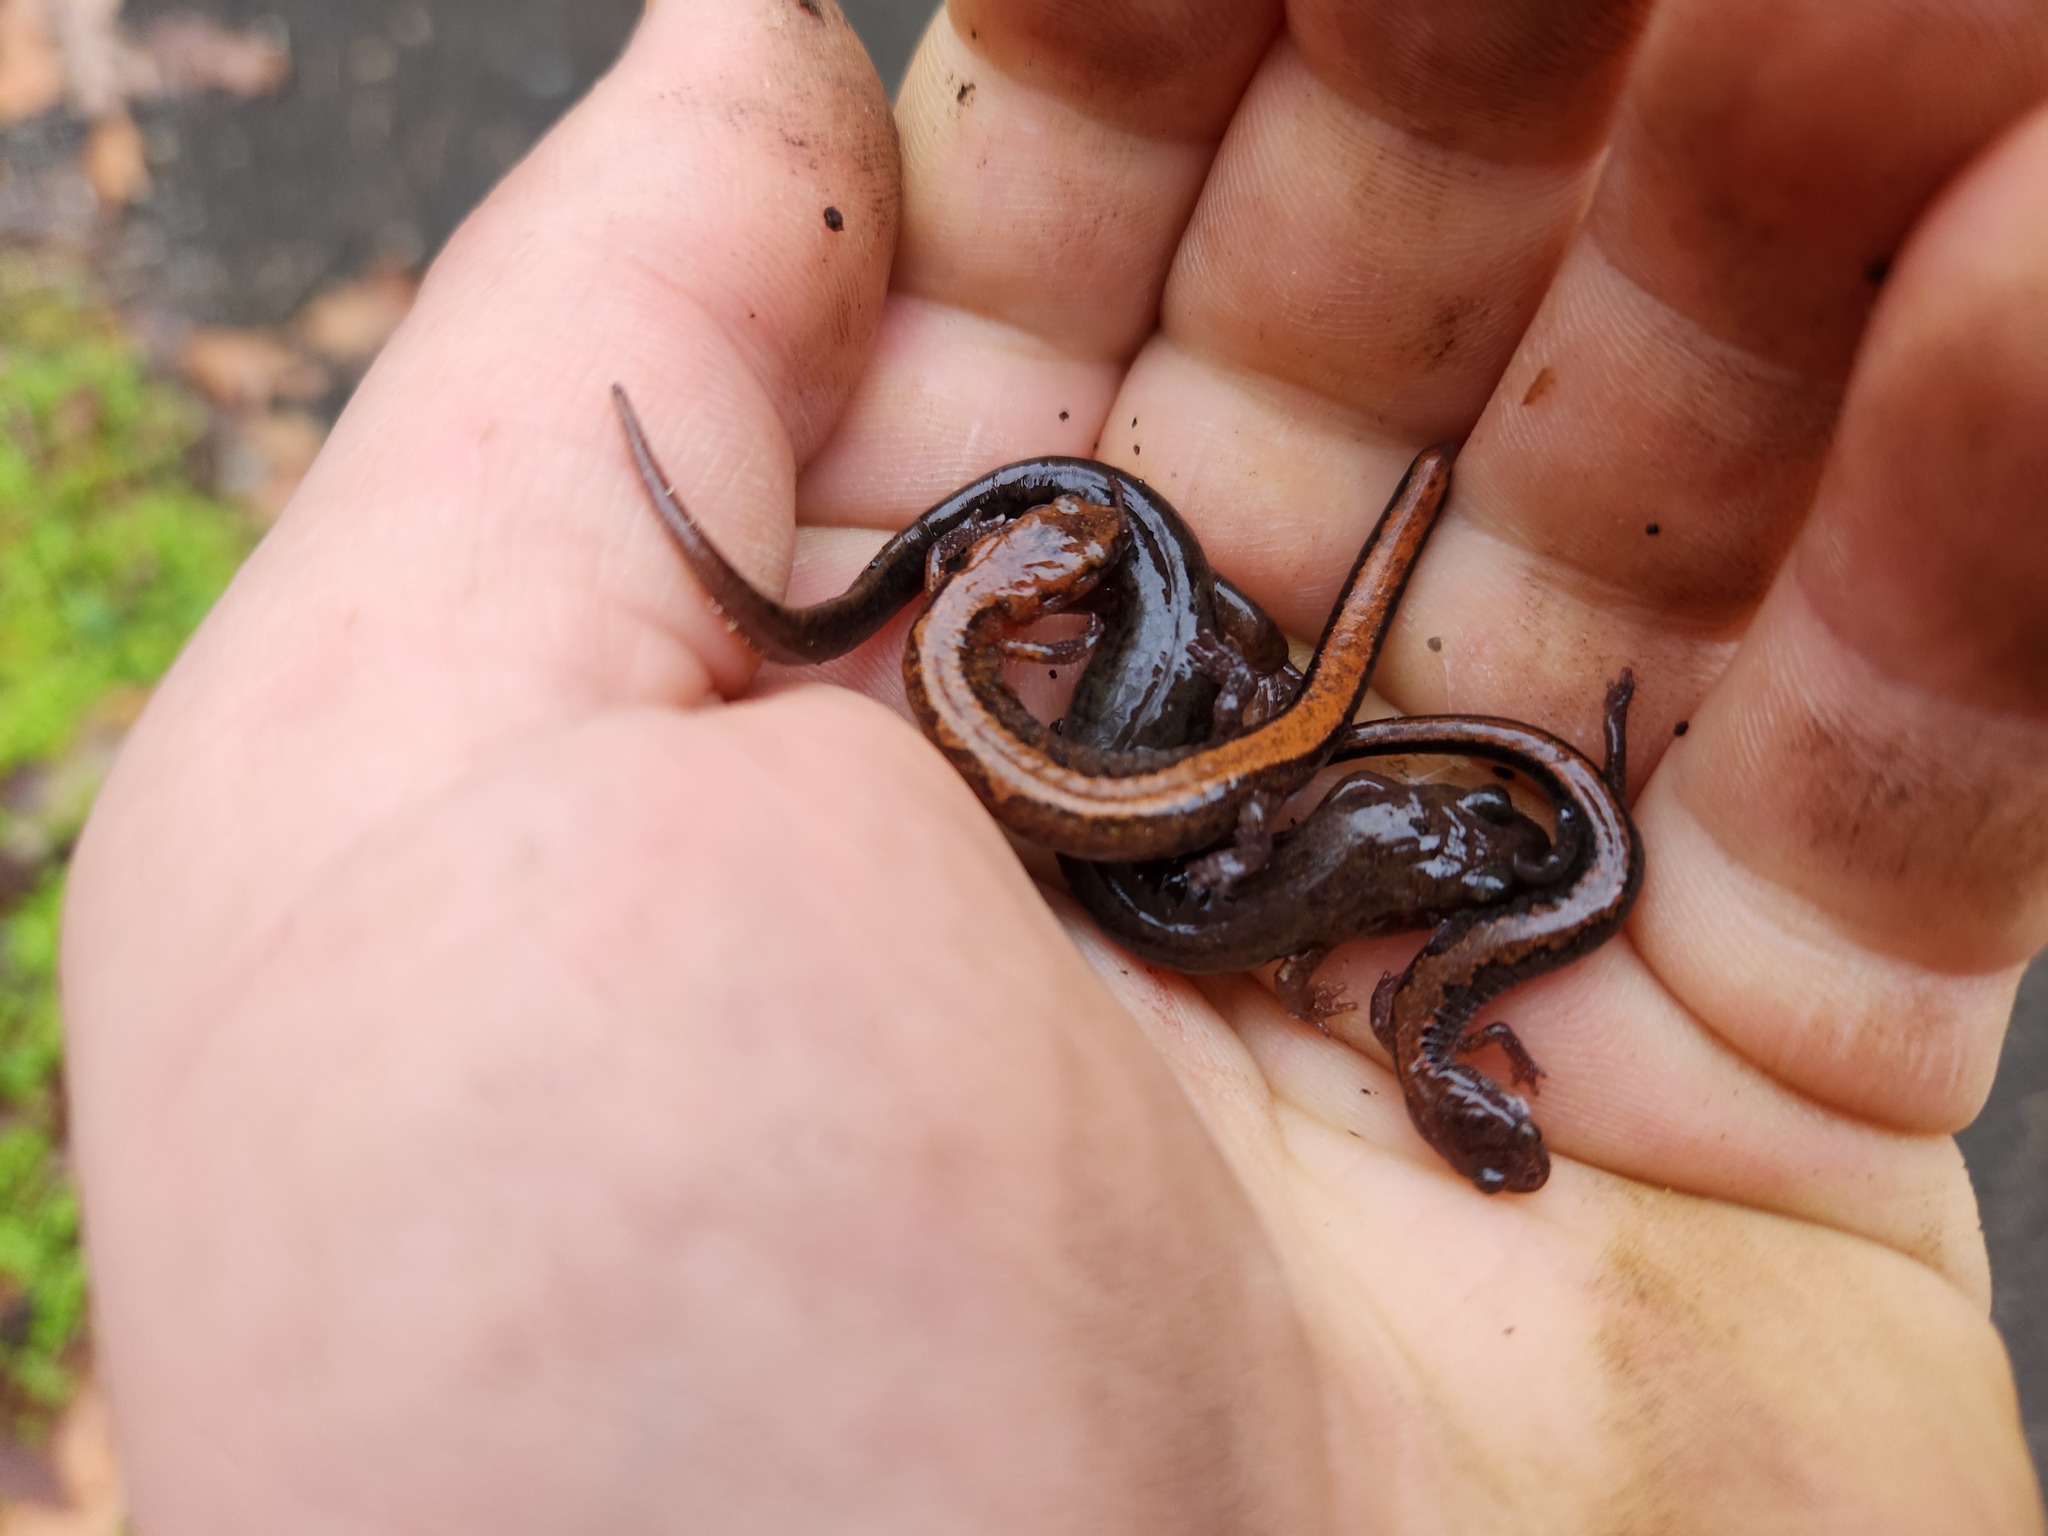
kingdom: Animalia
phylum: Chordata
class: Amphibia
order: Caudata
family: Plethodontidae
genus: Plethodon
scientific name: Plethodon dorsalis
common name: Northern zigzag salamander
